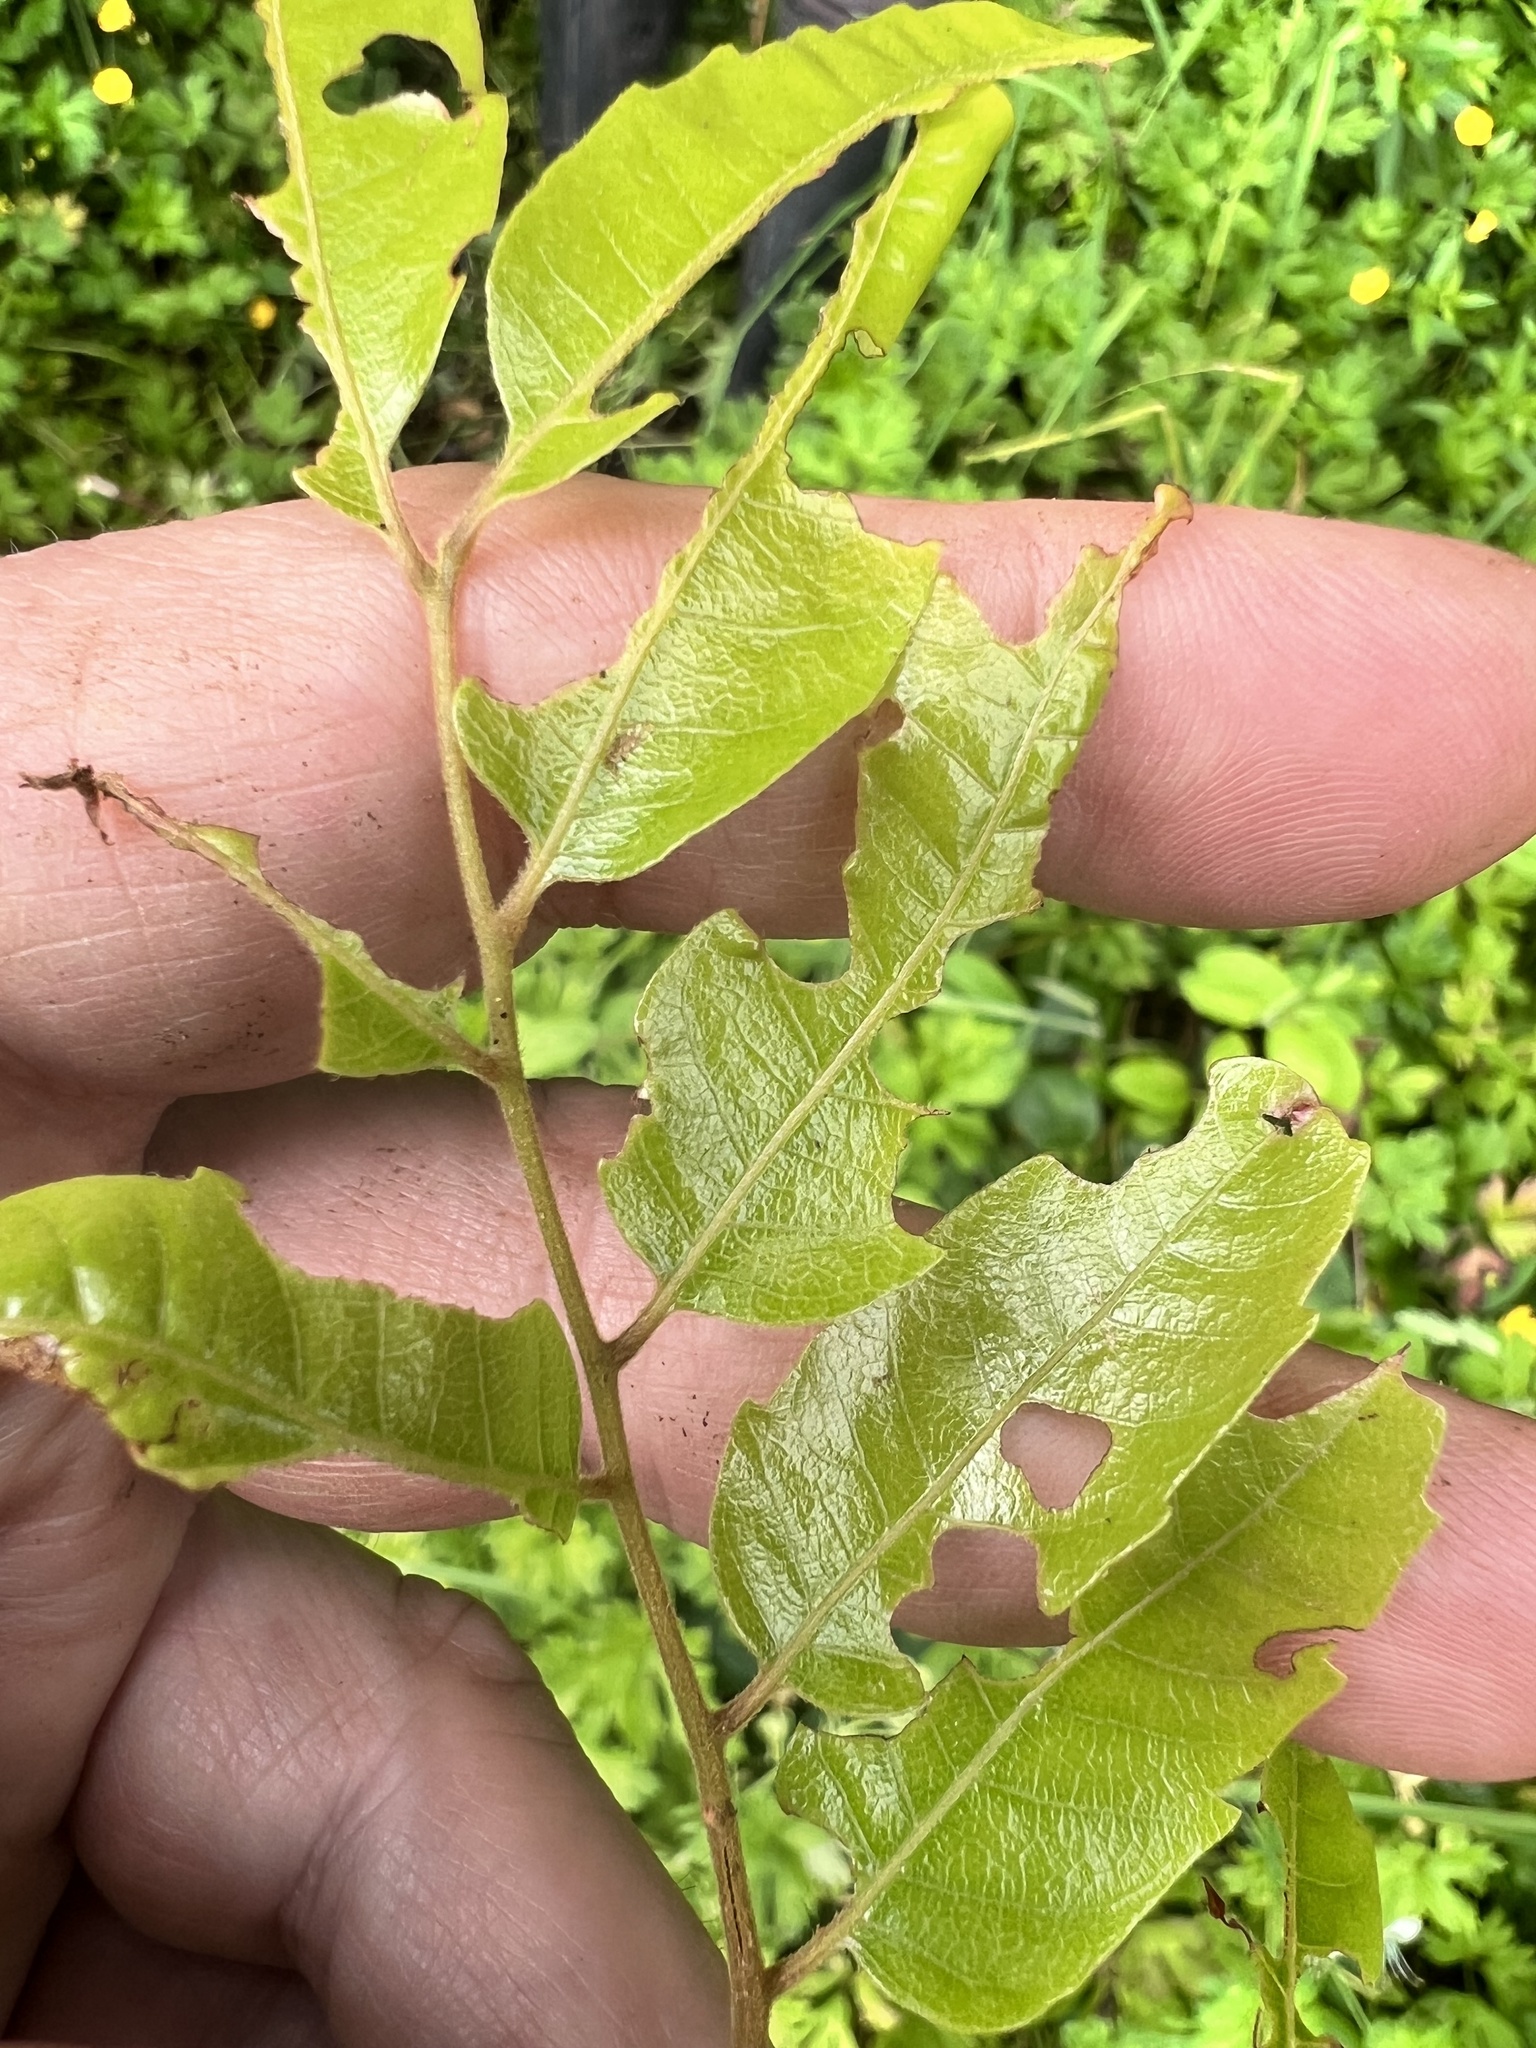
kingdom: Plantae
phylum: Tracheophyta
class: Magnoliopsida
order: Sapindales
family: Sapindaceae
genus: Alectryon
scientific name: Alectryon excelsus
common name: Three kings titoki
